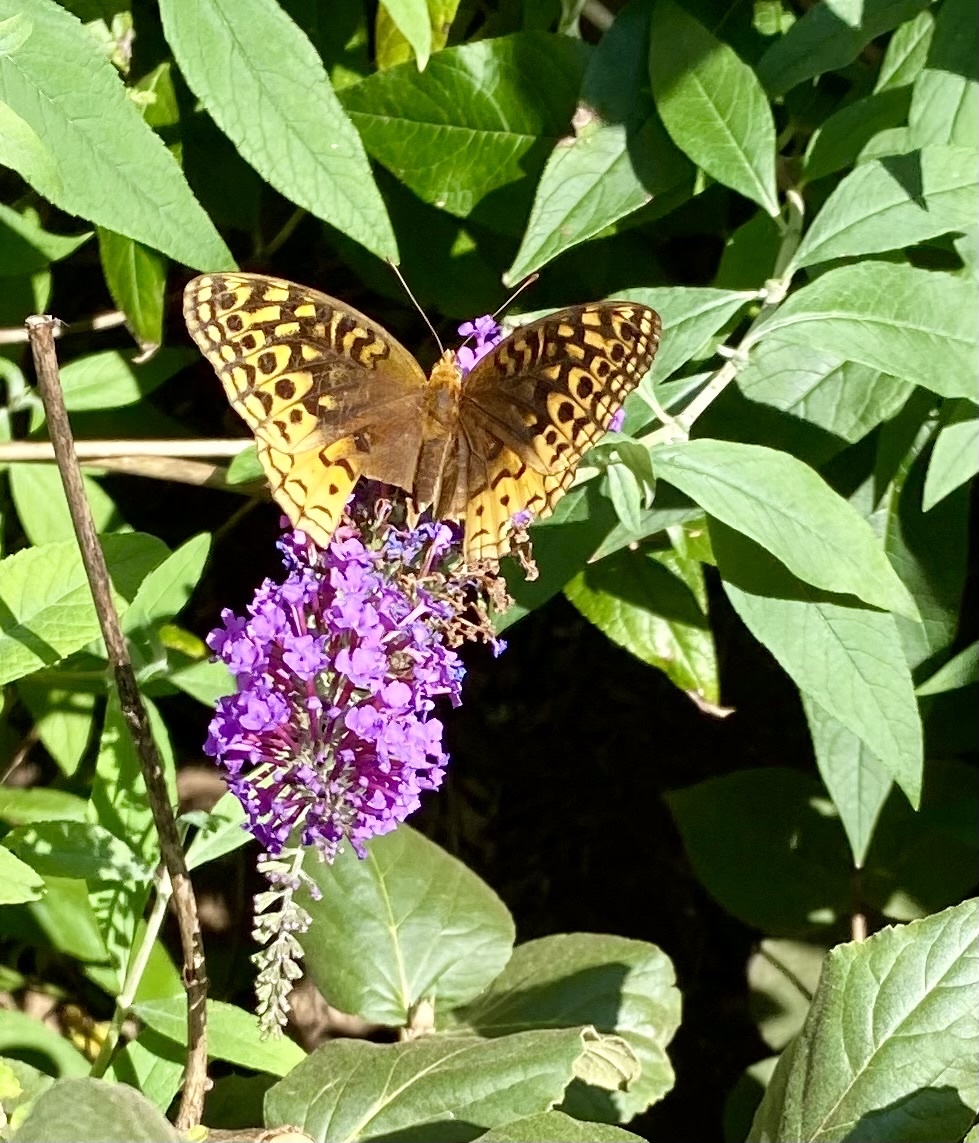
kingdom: Animalia
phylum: Arthropoda
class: Insecta
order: Lepidoptera
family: Nymphalidae
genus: Speyeria
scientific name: Speyeria cybele
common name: Great spangled fritillary
